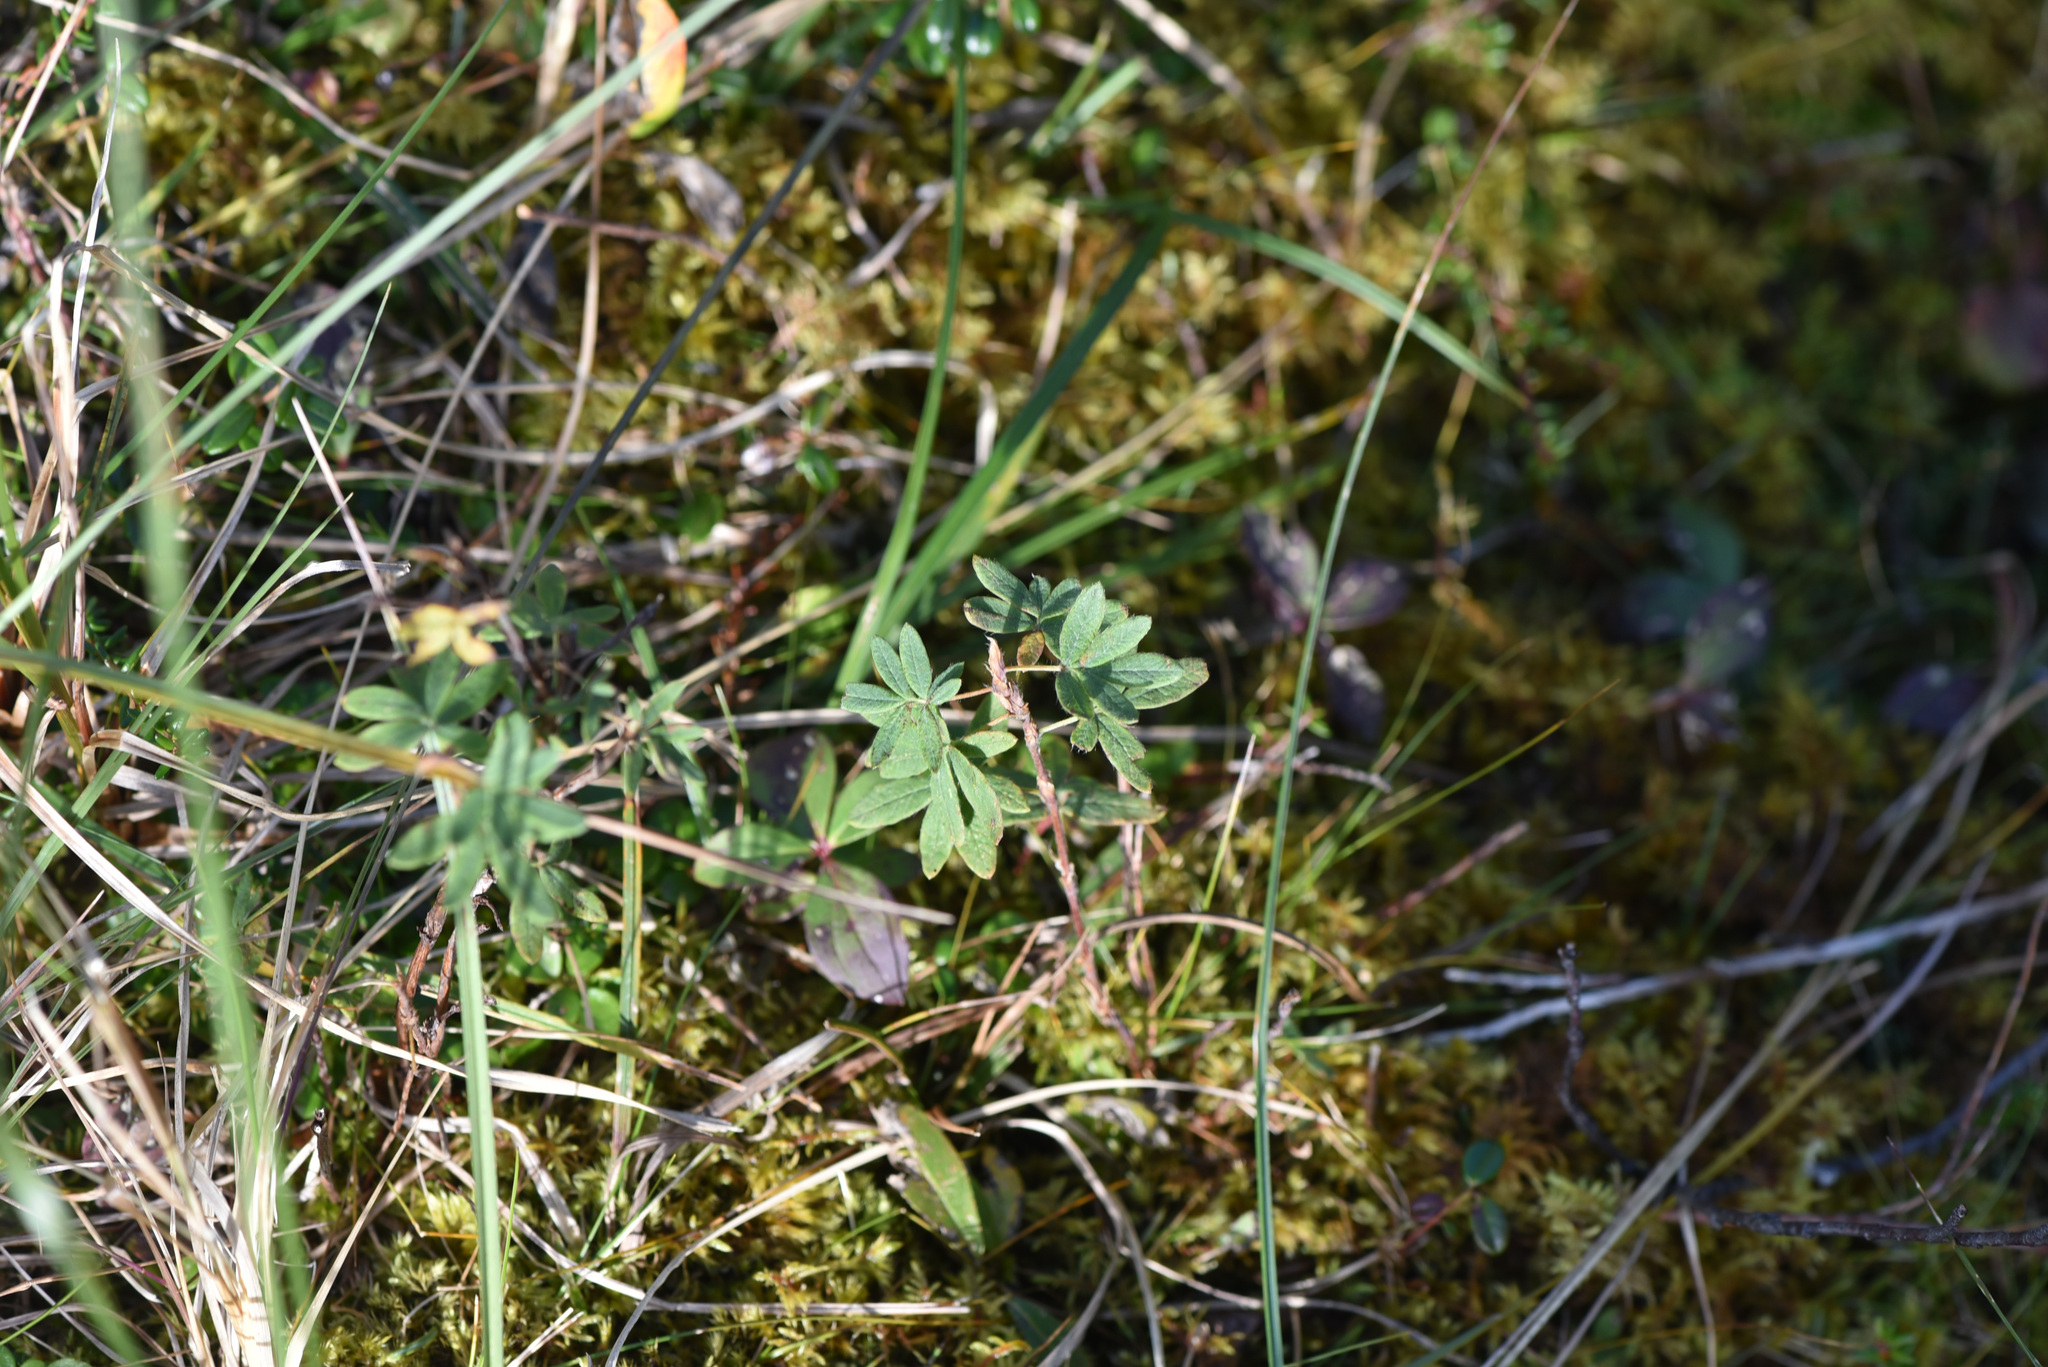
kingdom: Plantae
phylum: Tracheophyta
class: Magnoliopsida
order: Rosales
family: Rosaceae
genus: Dasiphora
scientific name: Dasiphora fruticosa
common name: Shrubby cinquefoil
